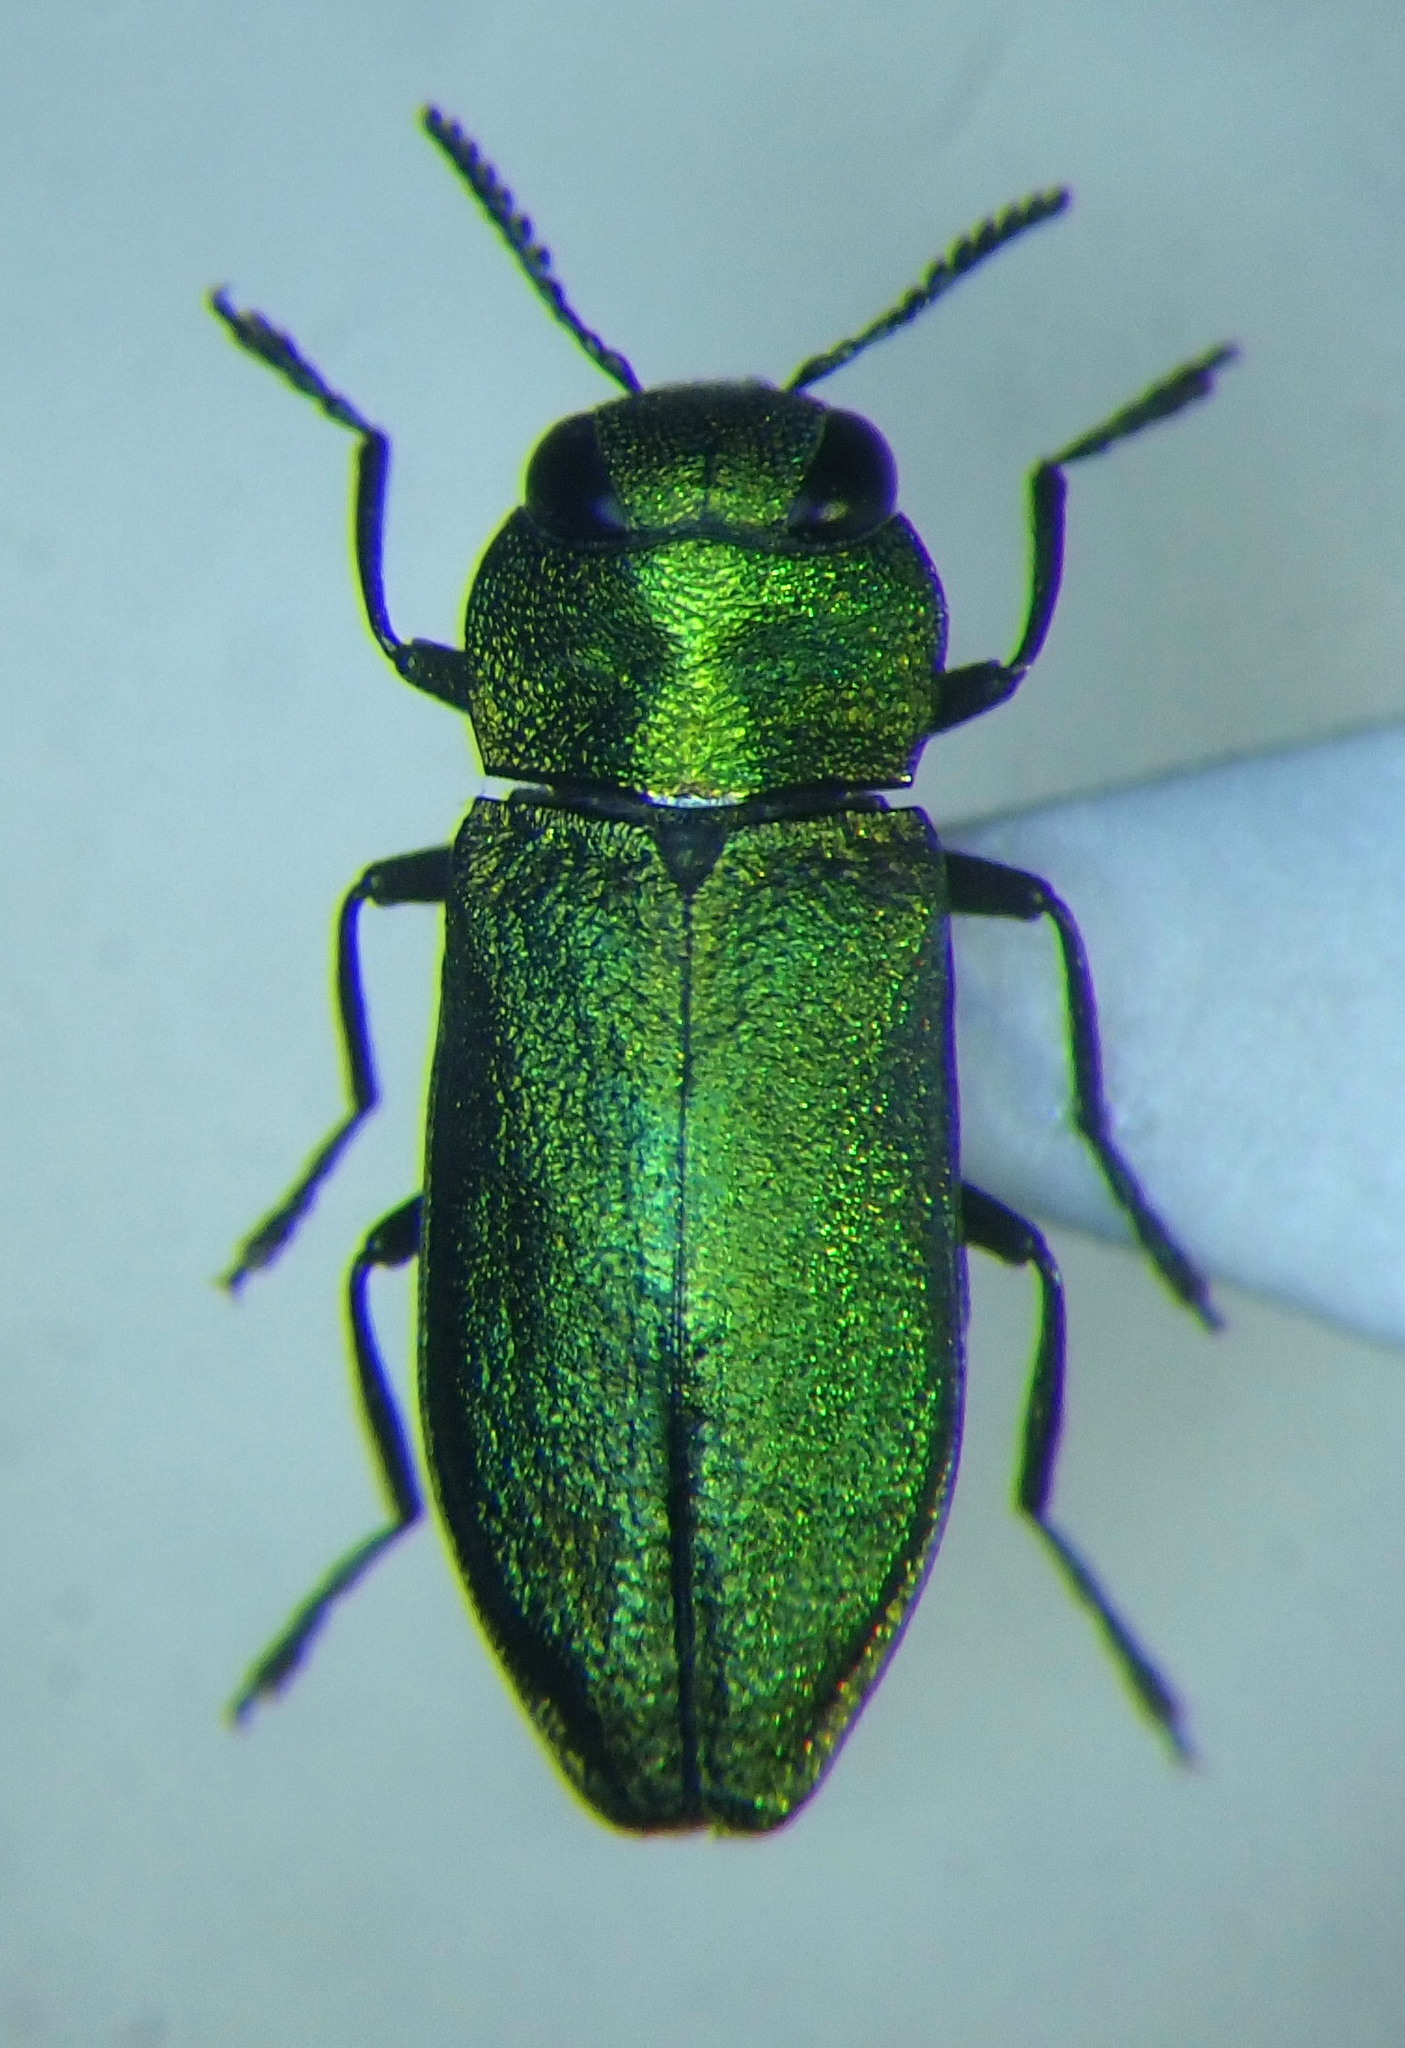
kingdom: Animalia
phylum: Arthropoda
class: Insecta
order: Coleoptera
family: Buprestidae
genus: Anthaxia
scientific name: Anthaxia nitidula
